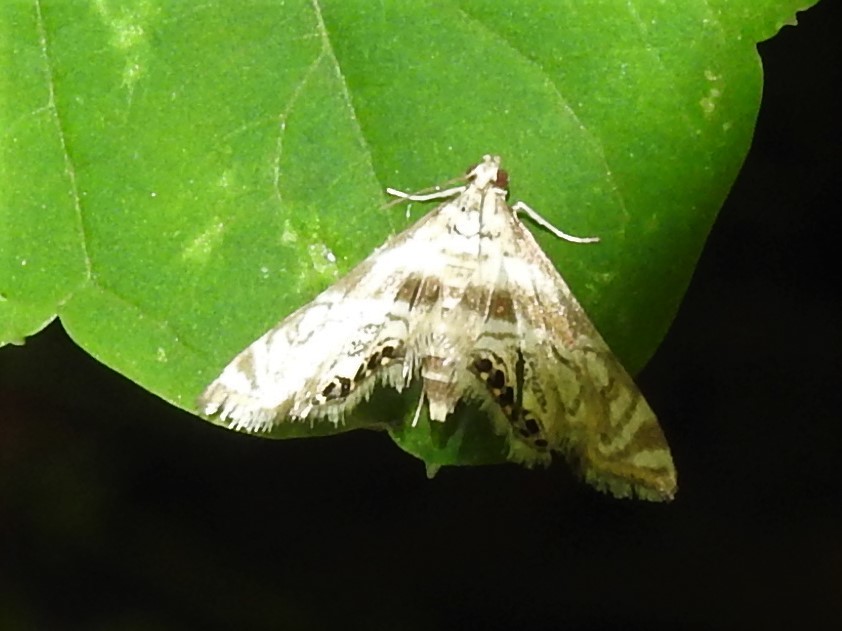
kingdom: Animalia
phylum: Arthropoda
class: Insecta
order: Lepidoptera
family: Crambidae
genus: Petrophila
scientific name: Petrophila canadensis
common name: Canadian petrophila
